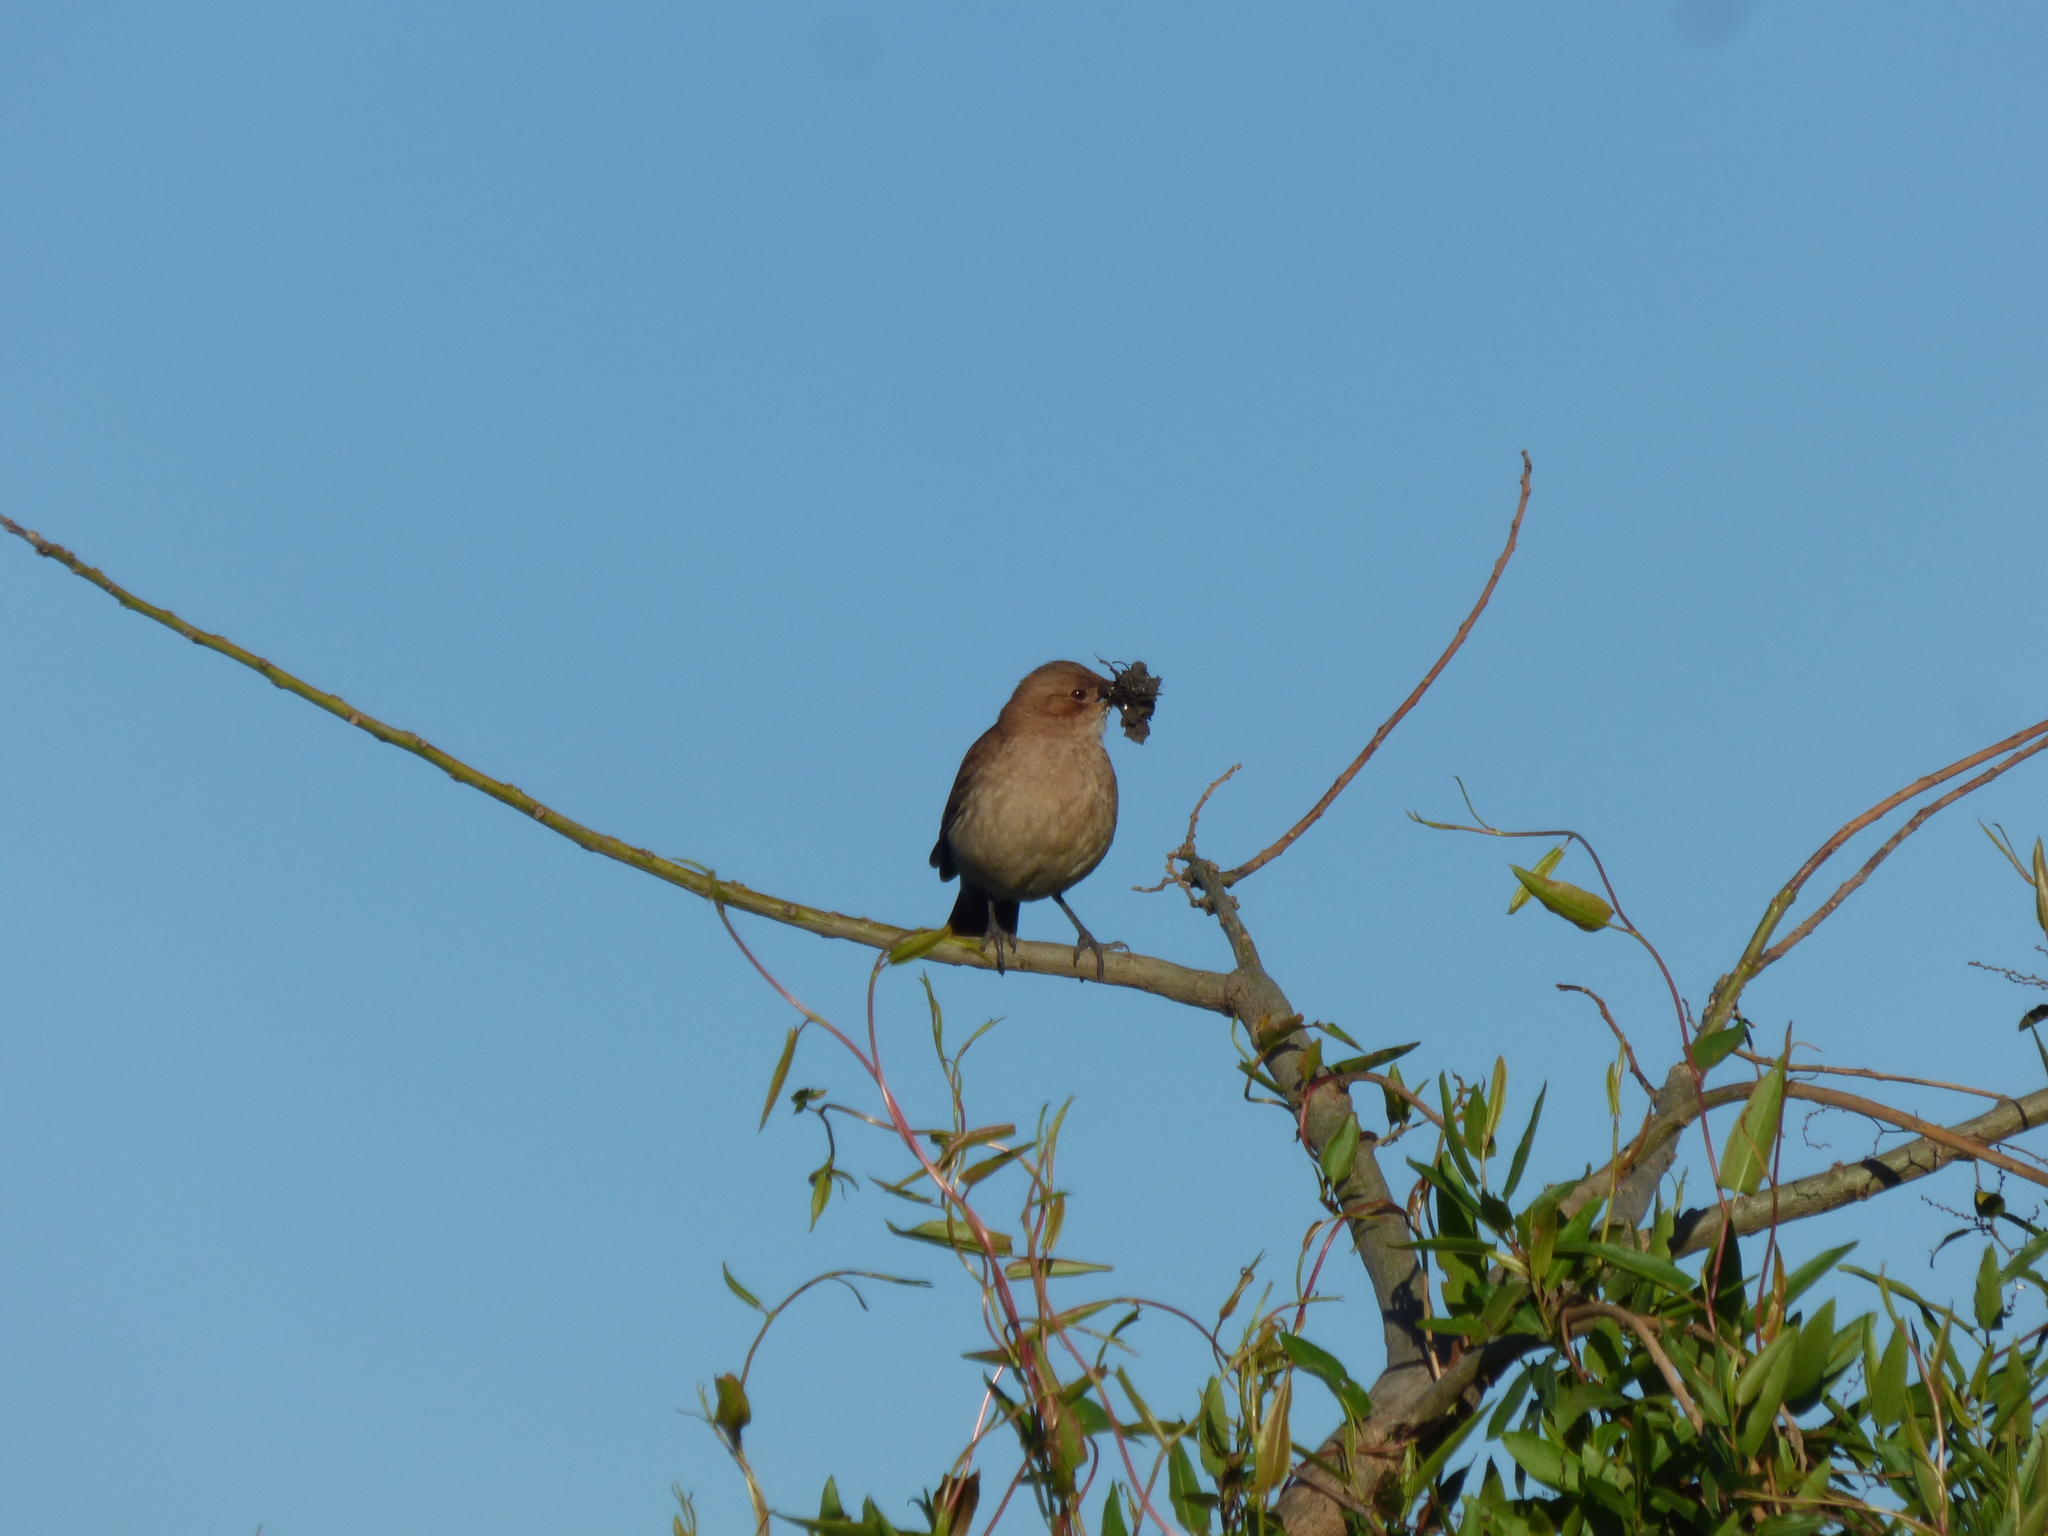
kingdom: Animalia
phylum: Chordata
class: Aves
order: Passeriformes
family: Furnariidae
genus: Furnarius
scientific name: Furnarius rufus
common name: Rufous hornero
